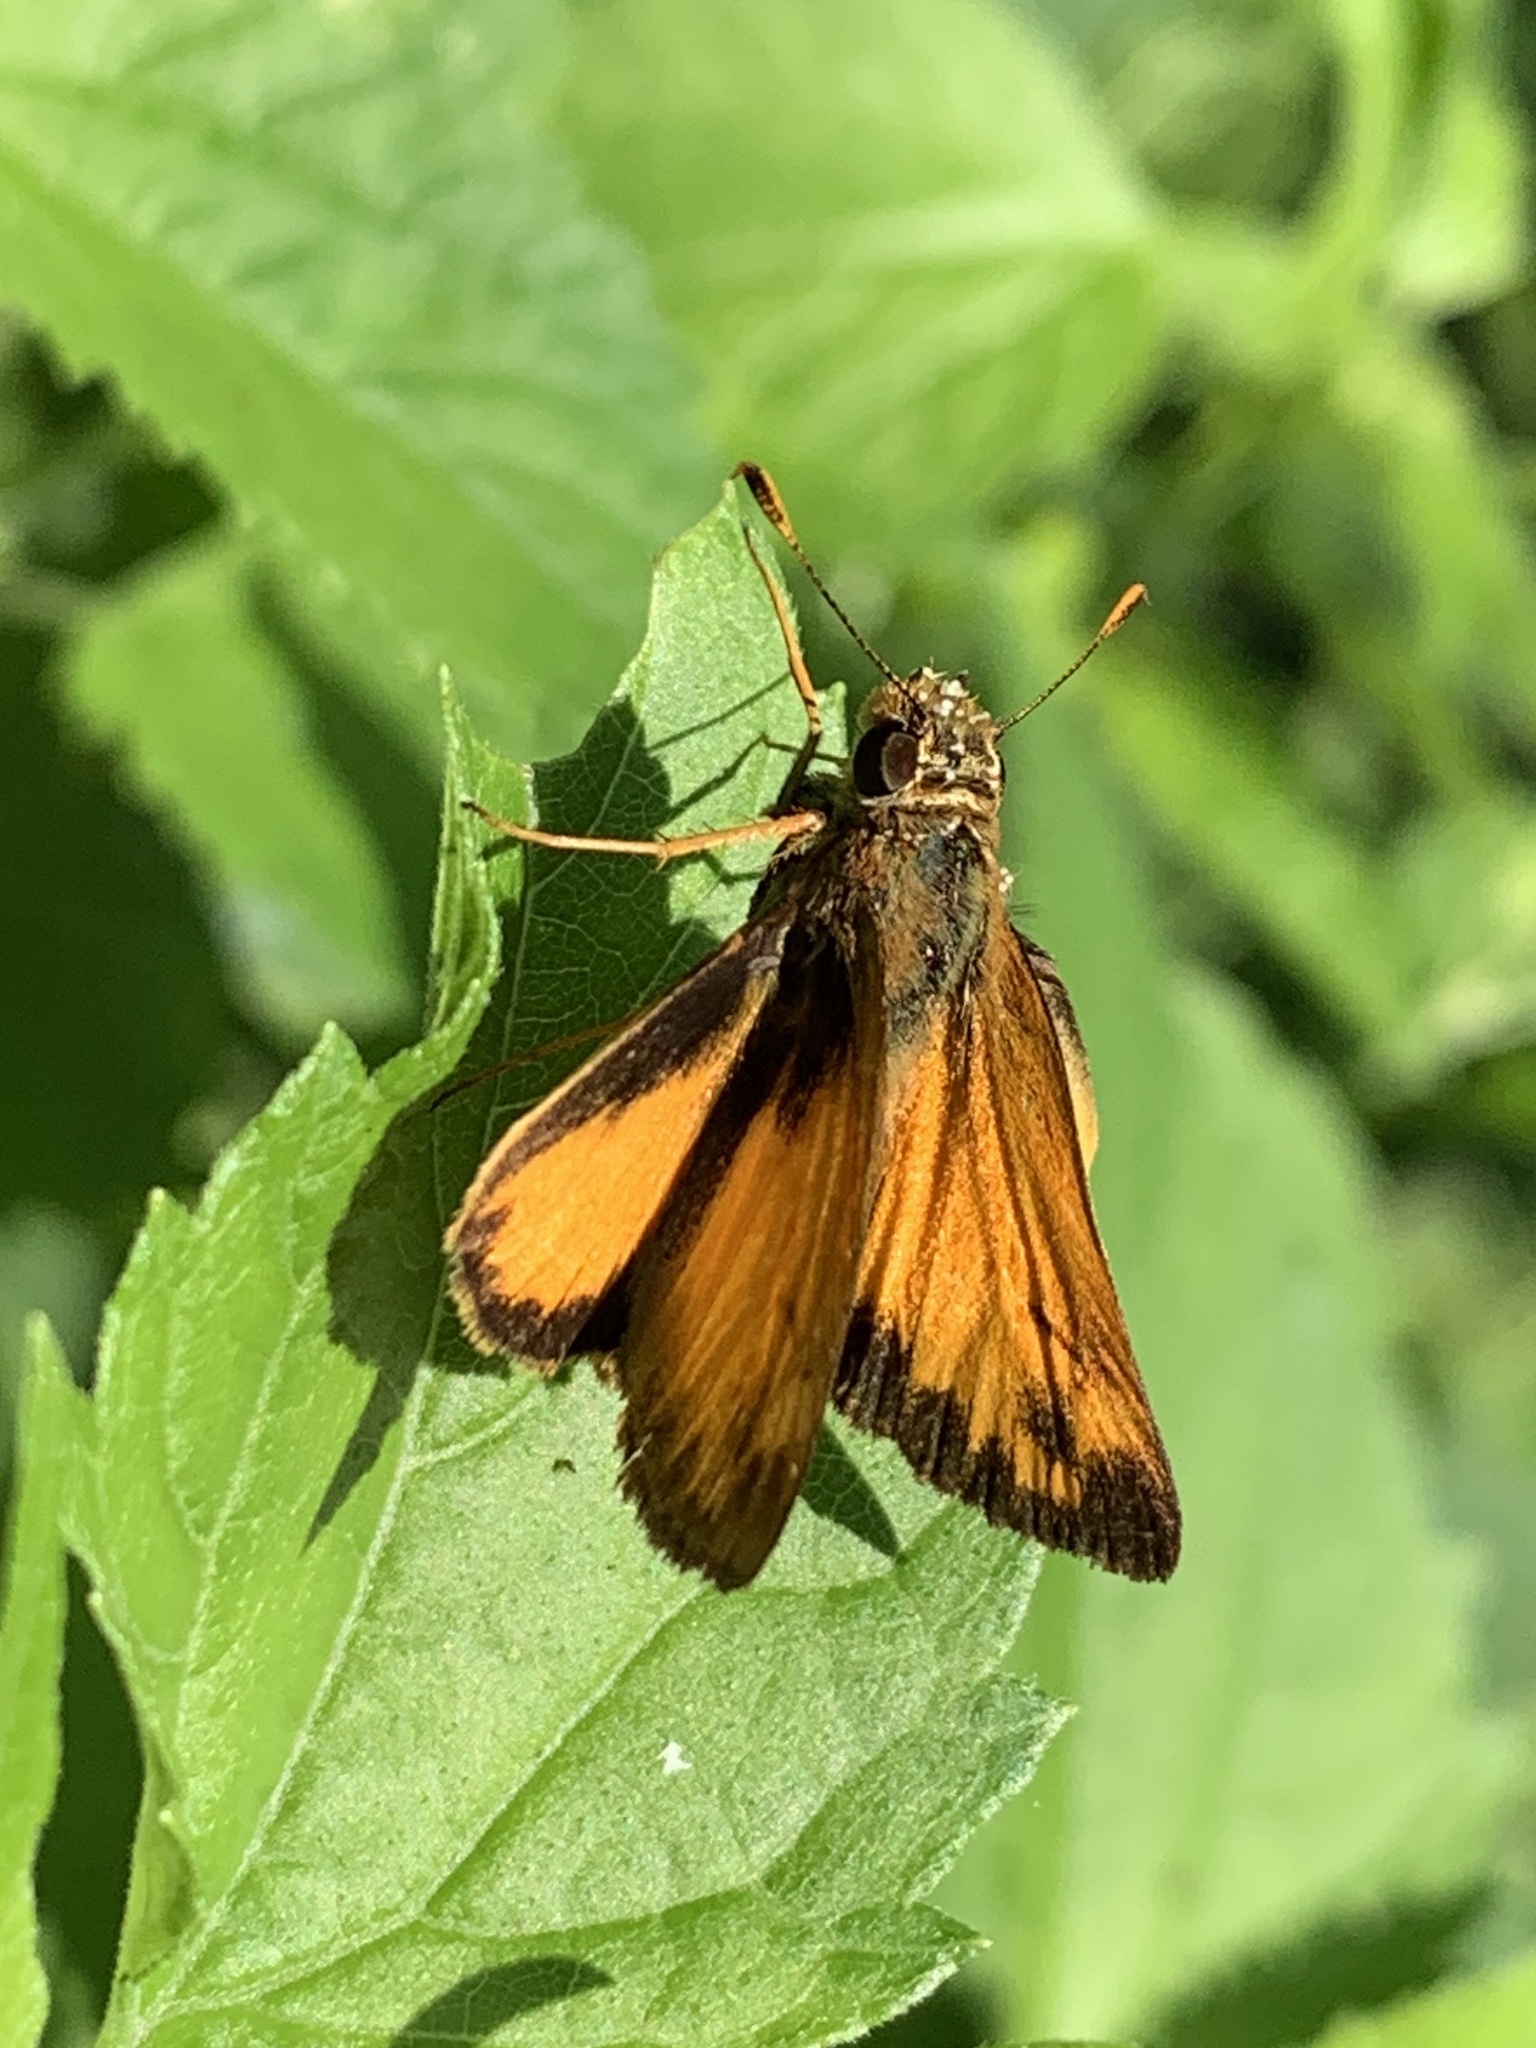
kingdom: Animalia
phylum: Arthropoda
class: Insecta
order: Lepidoptera
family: Hesperiidae
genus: Lon
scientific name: Lon zabulon
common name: Zabulon skipper
